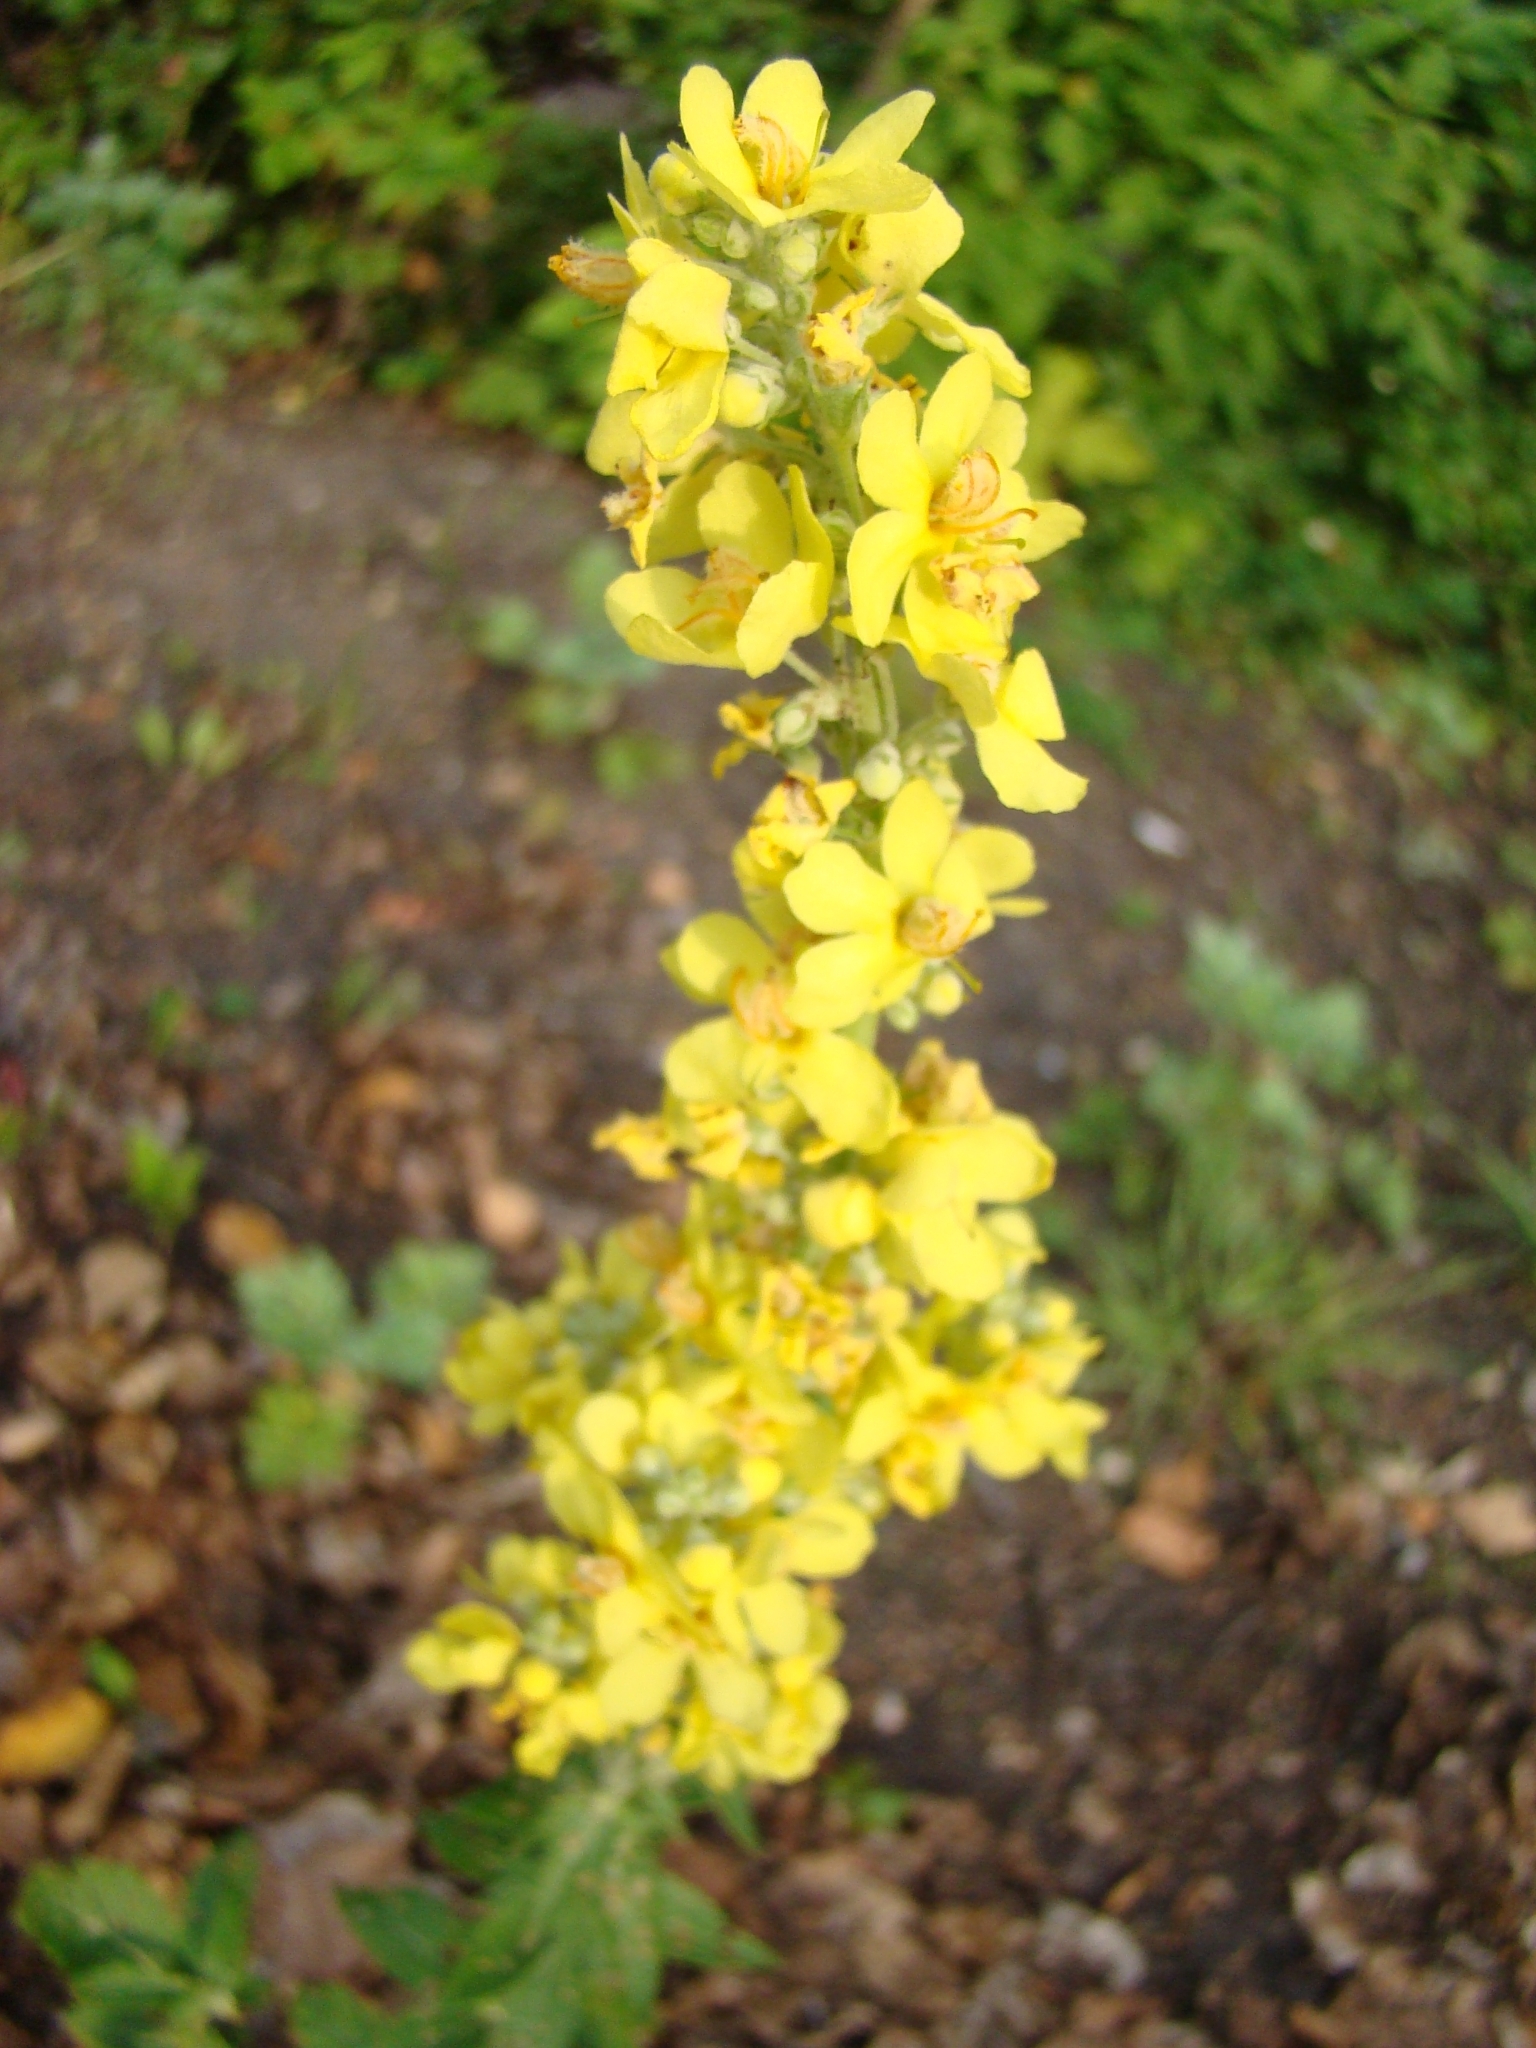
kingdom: Plantae
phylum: Tracheophyta
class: Magnoliopsida
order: Lamiales
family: Scrophulariaceae
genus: Verbascum
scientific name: Verbascum lychnitis
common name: White mullein
